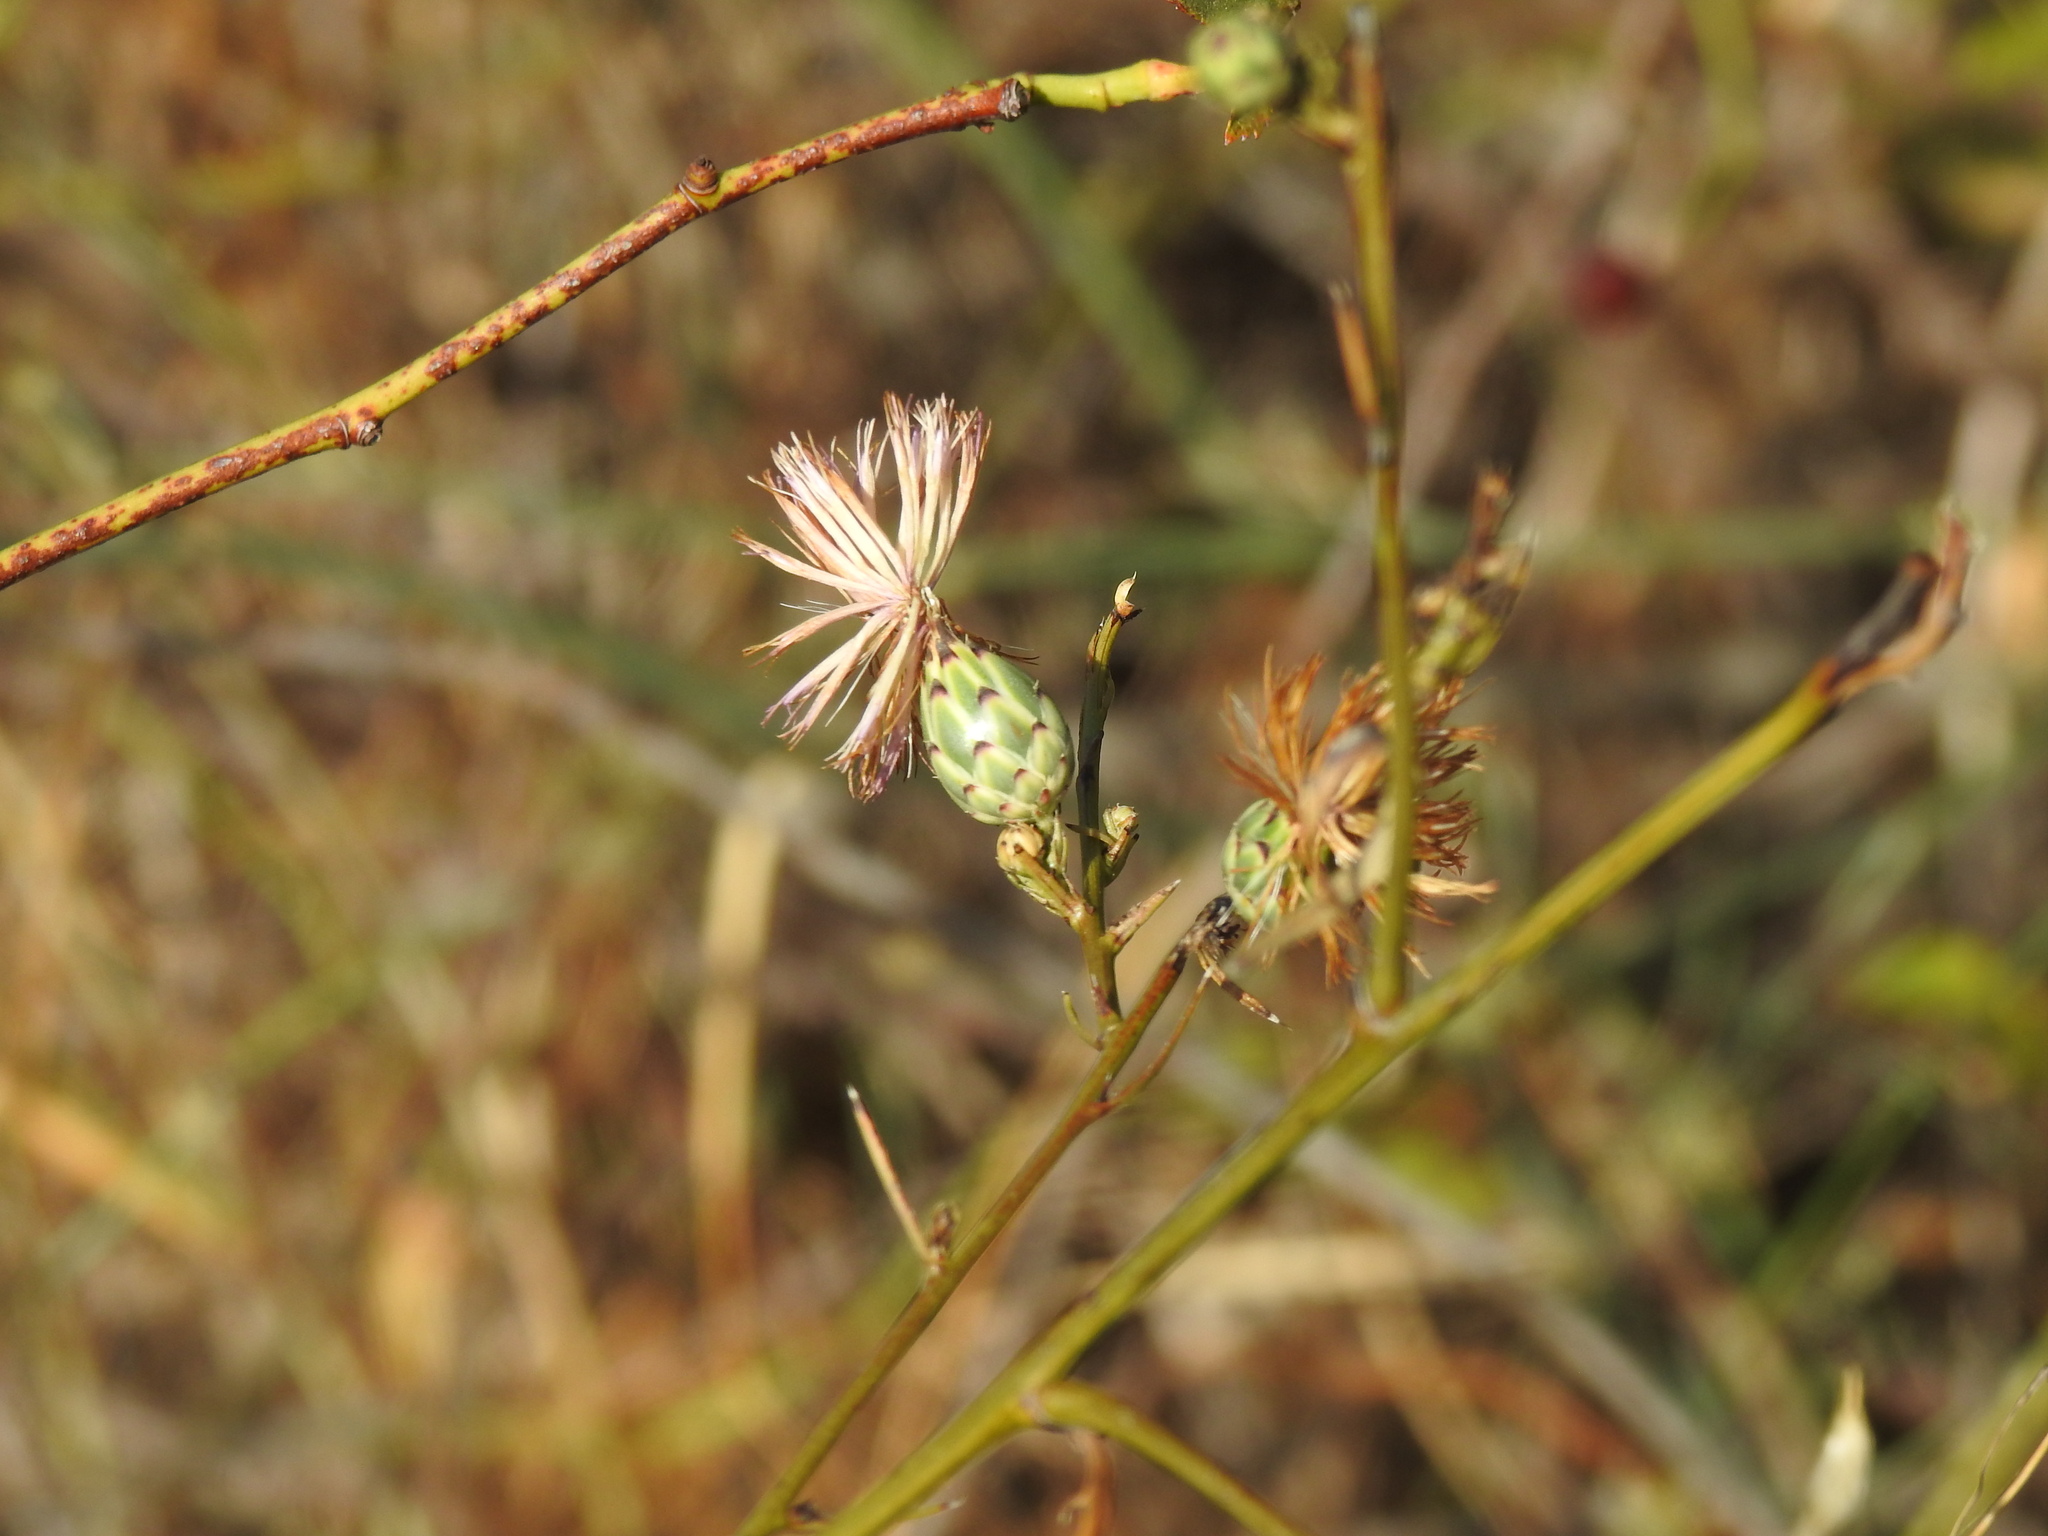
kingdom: Plantae
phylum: Tracheophyta
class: Magnoliopsida
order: Asterales
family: Asteraceae
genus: Mantisalca
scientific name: Mantisalca salmantica
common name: Dagger flower
